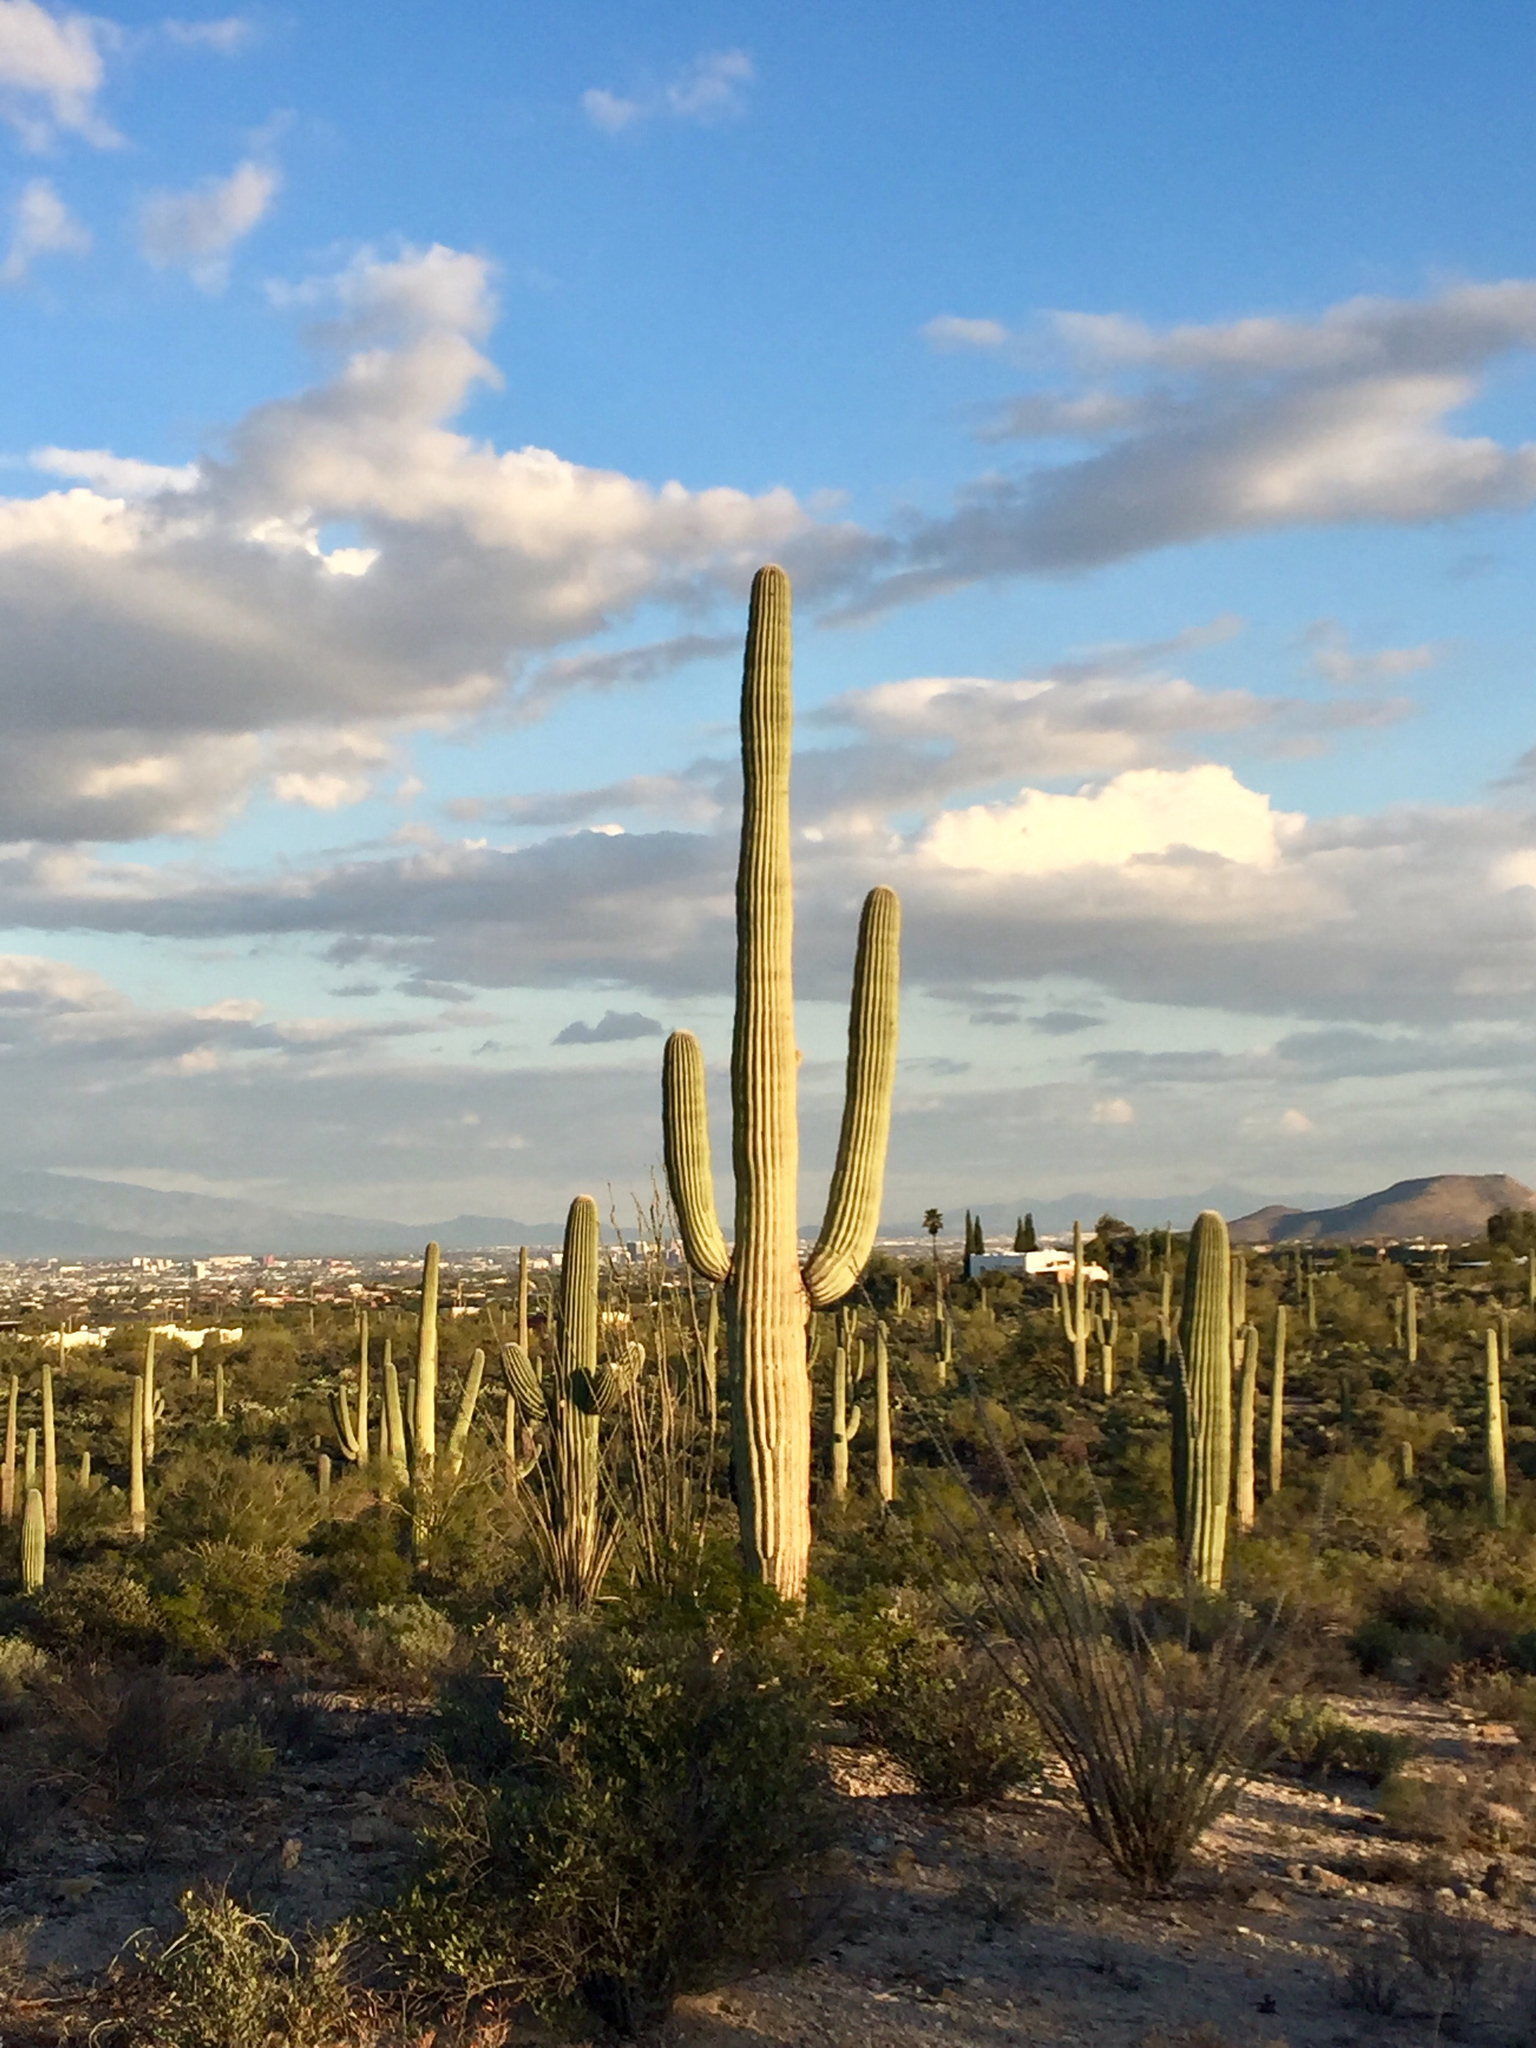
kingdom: Plantae
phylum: Tracheophyta
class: Magnoliopsida
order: Caryophyllales
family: Cactaceae
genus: Carnegiea
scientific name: Carnegiea gigantea
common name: Saguaro
